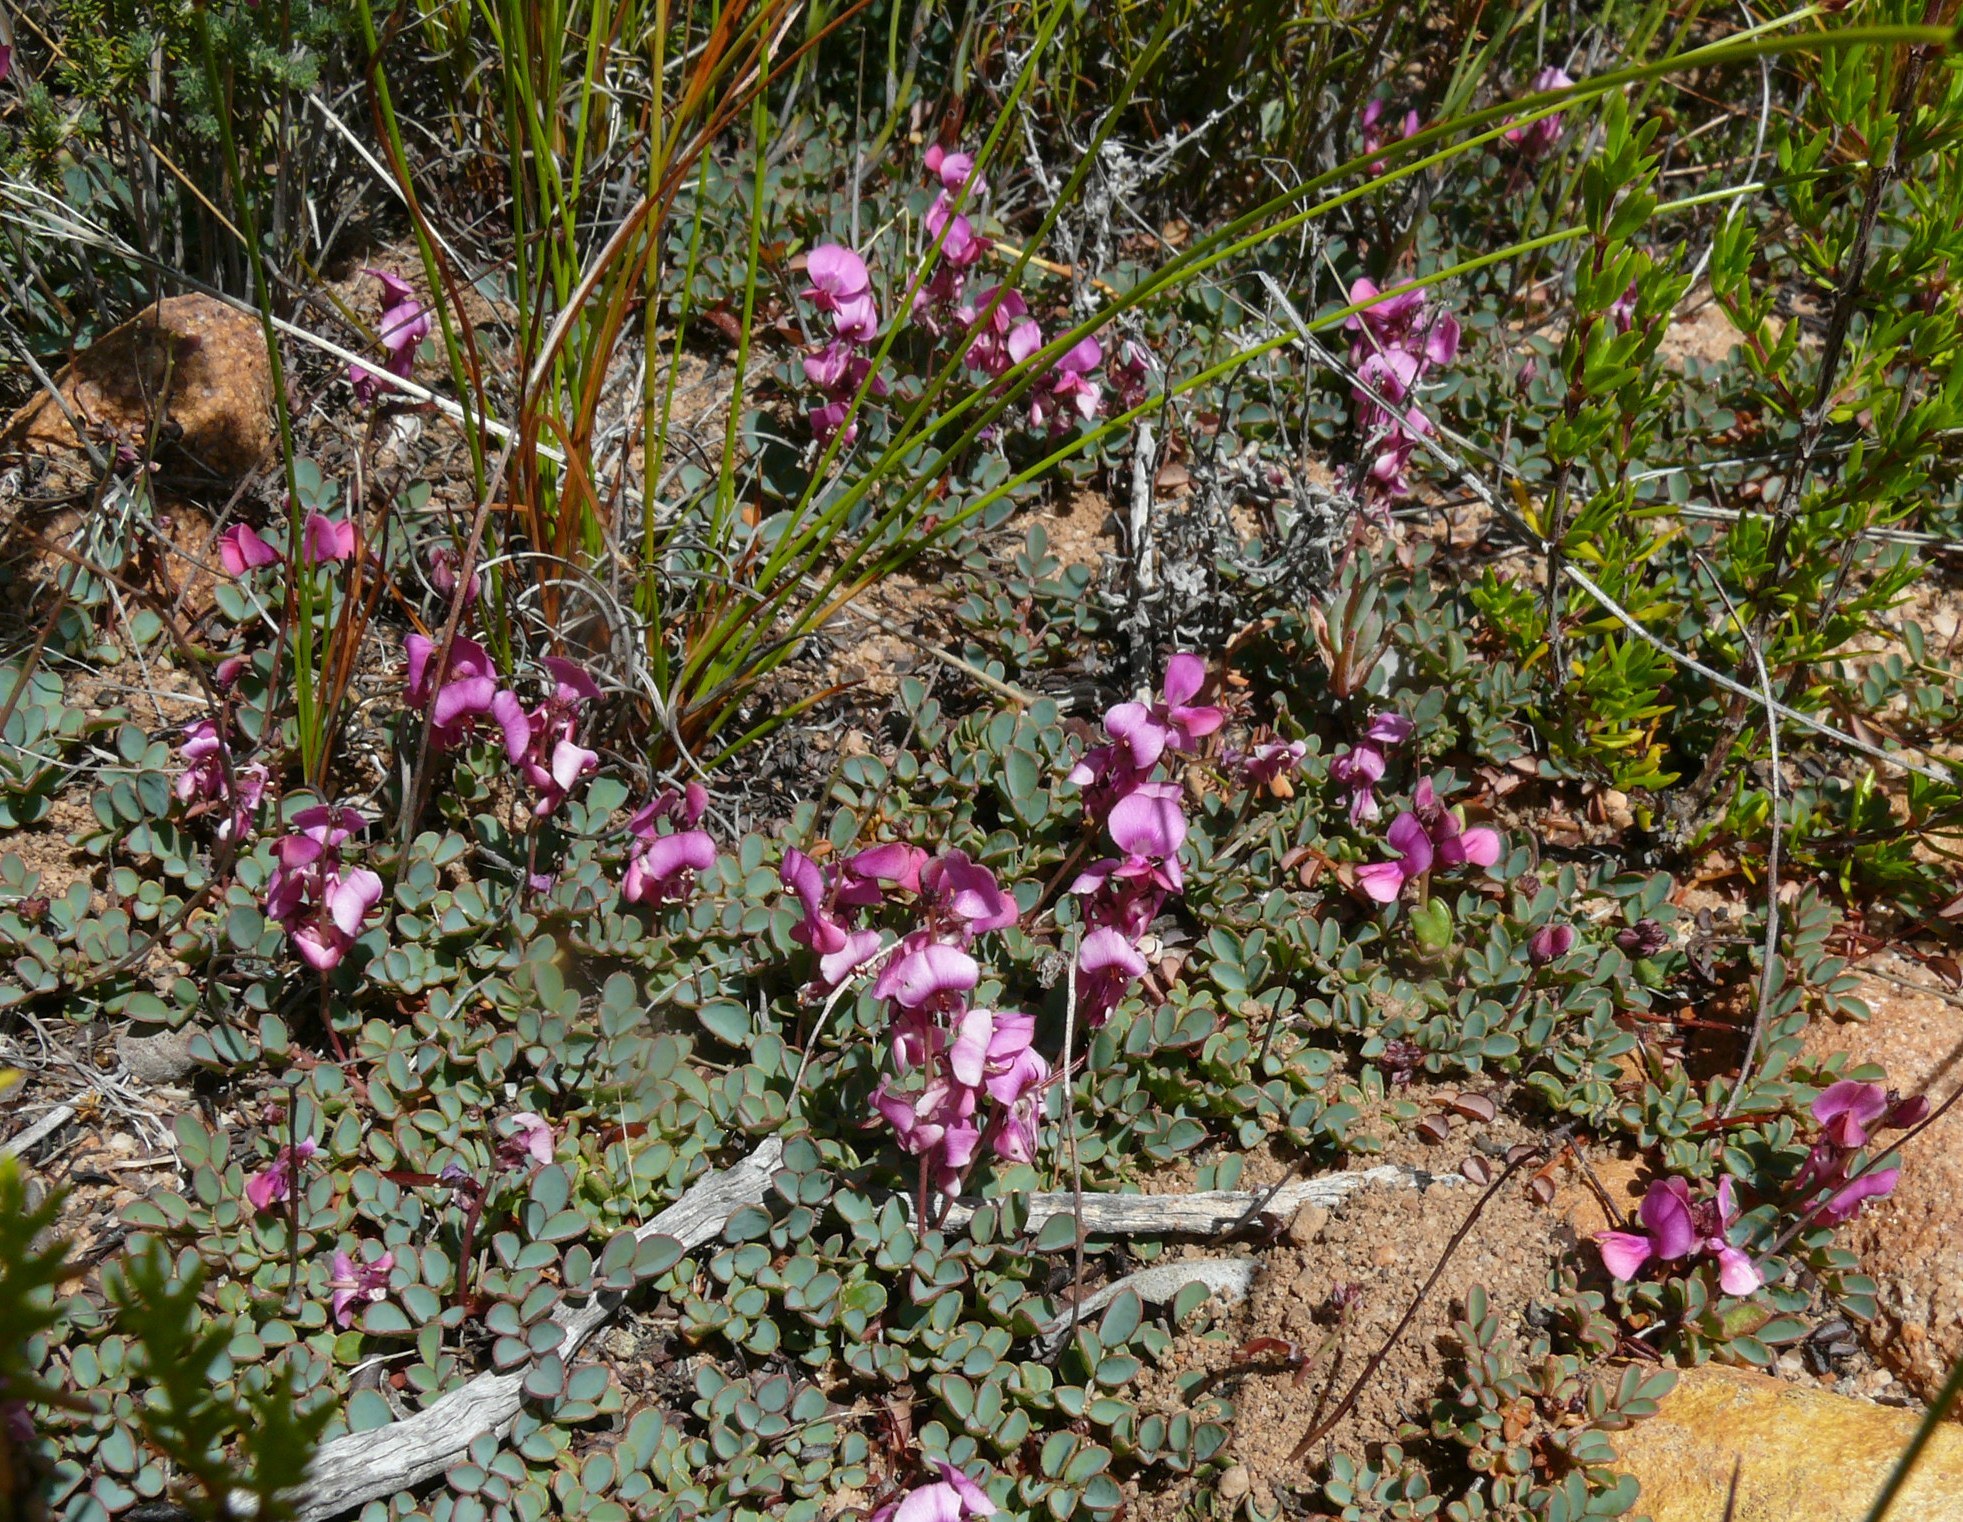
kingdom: Plantae
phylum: Tracheophyta
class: Magnoliopsida
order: Fabales
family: Fabaceae
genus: Indigofera
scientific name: Indigofera humifusa
